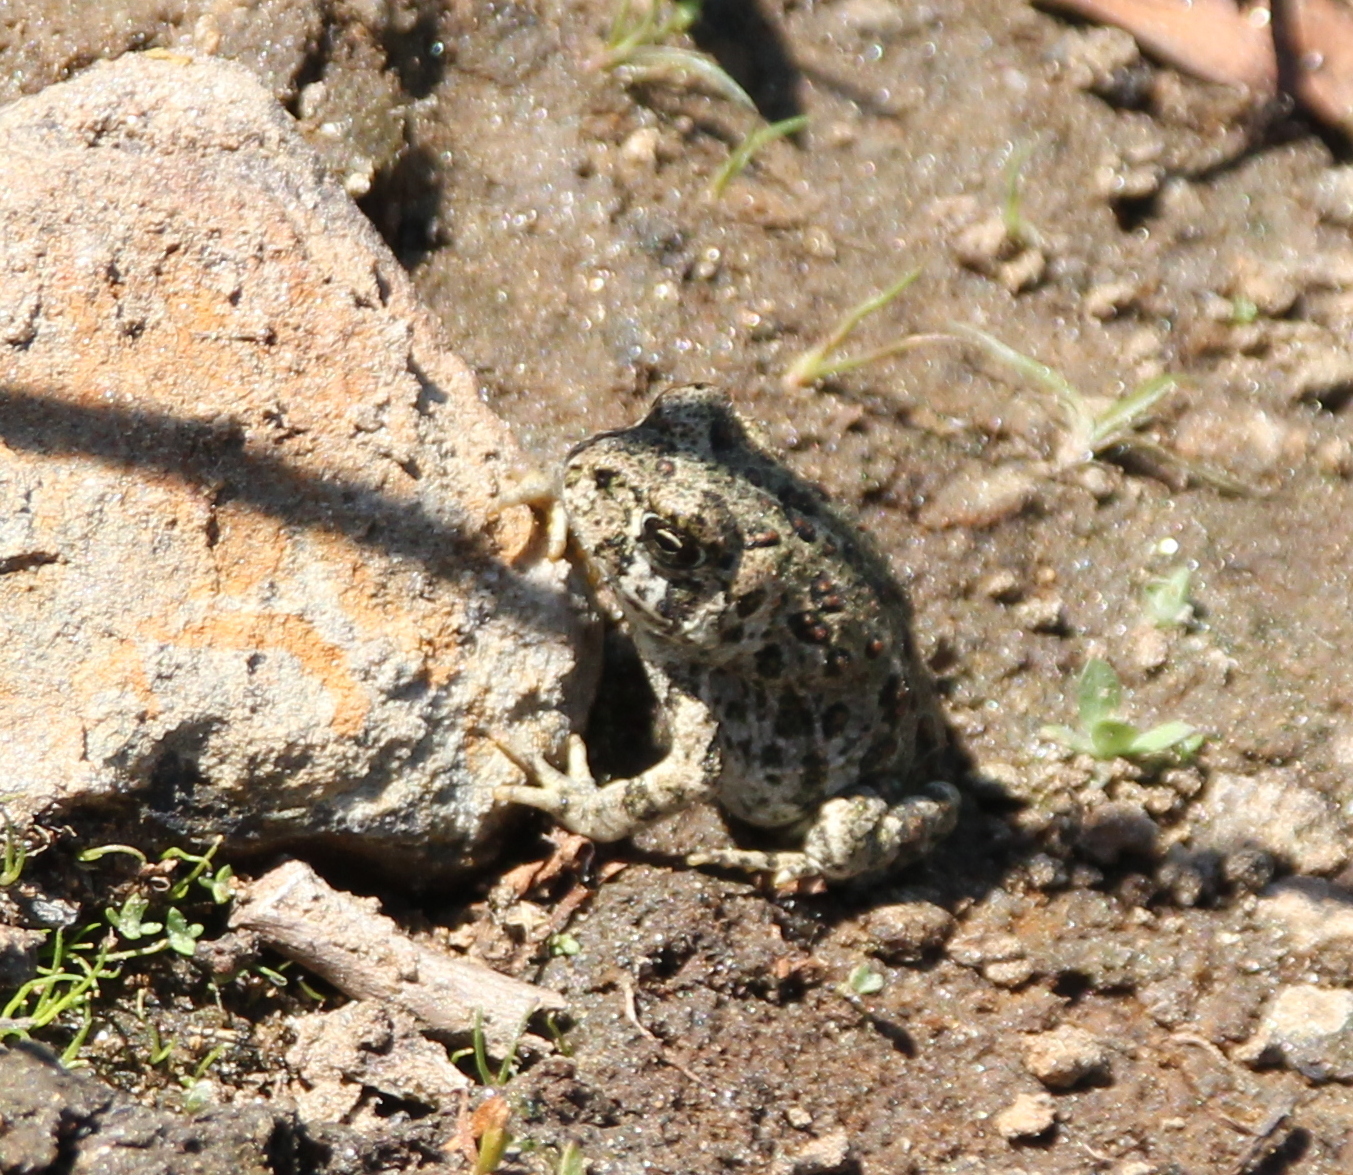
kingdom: Animalia
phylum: Chordata
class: Amphibia
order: Anura
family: Bufonidae
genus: Anaxyrus
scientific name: Anaxyrus boreas
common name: Western toad
